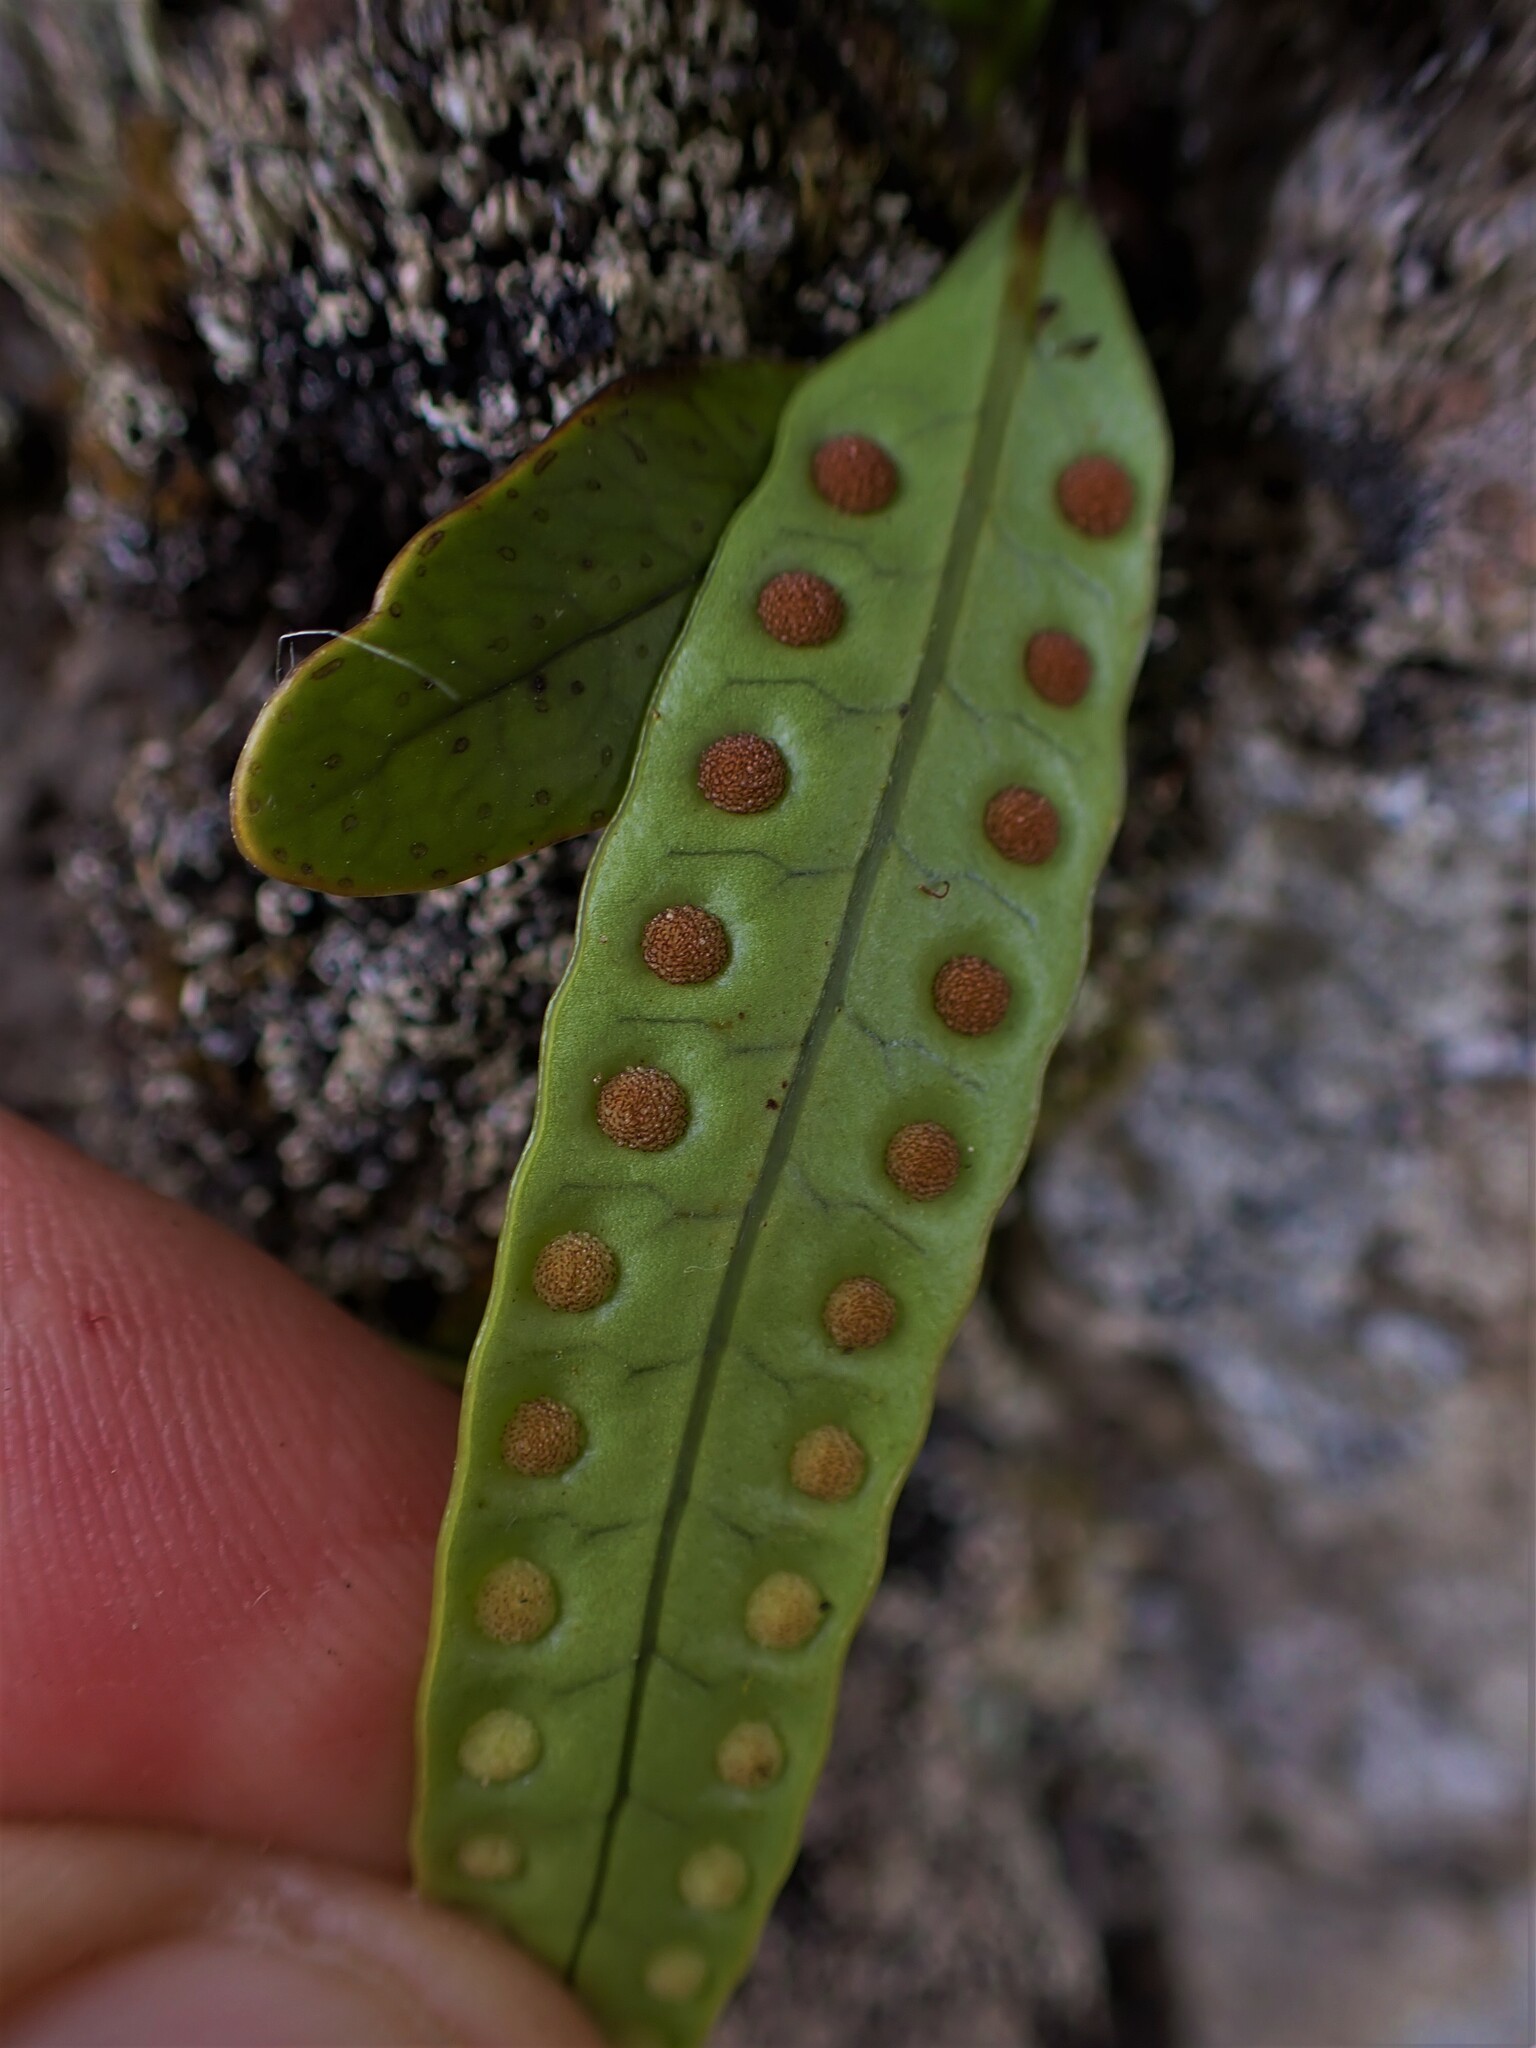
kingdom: Plantae
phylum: Tracheophyta
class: Polypodiopsida
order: Polypodiales
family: Polypodiaceae
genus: Lecanopteris
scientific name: Lecanopteris pustulata
